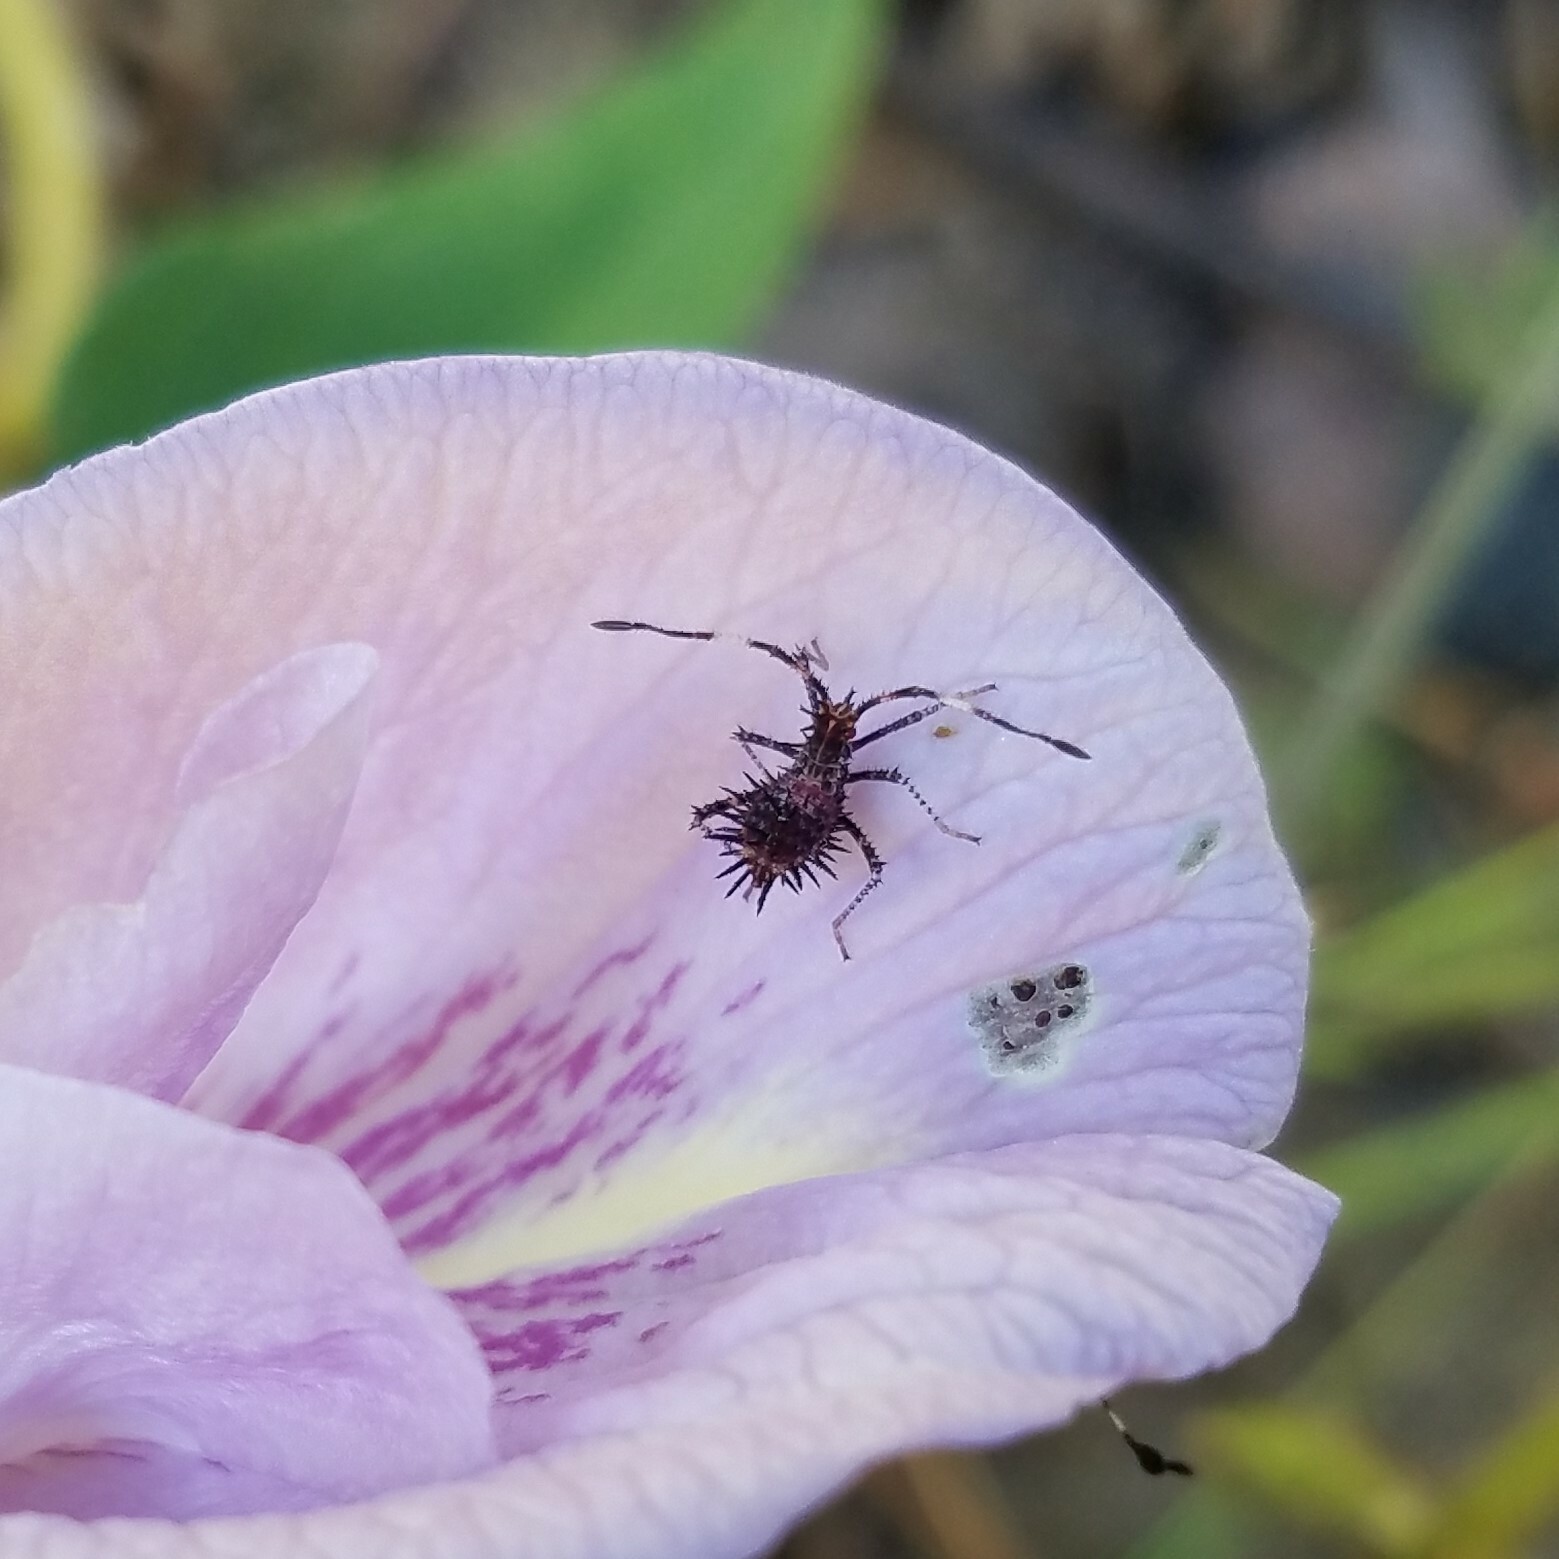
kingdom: Animalia
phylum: Arthropoda
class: Insecta
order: Hemiptera
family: Coreidae
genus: Euthochtha
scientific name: Euthochtha galeator
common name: Helmeted squash bug
